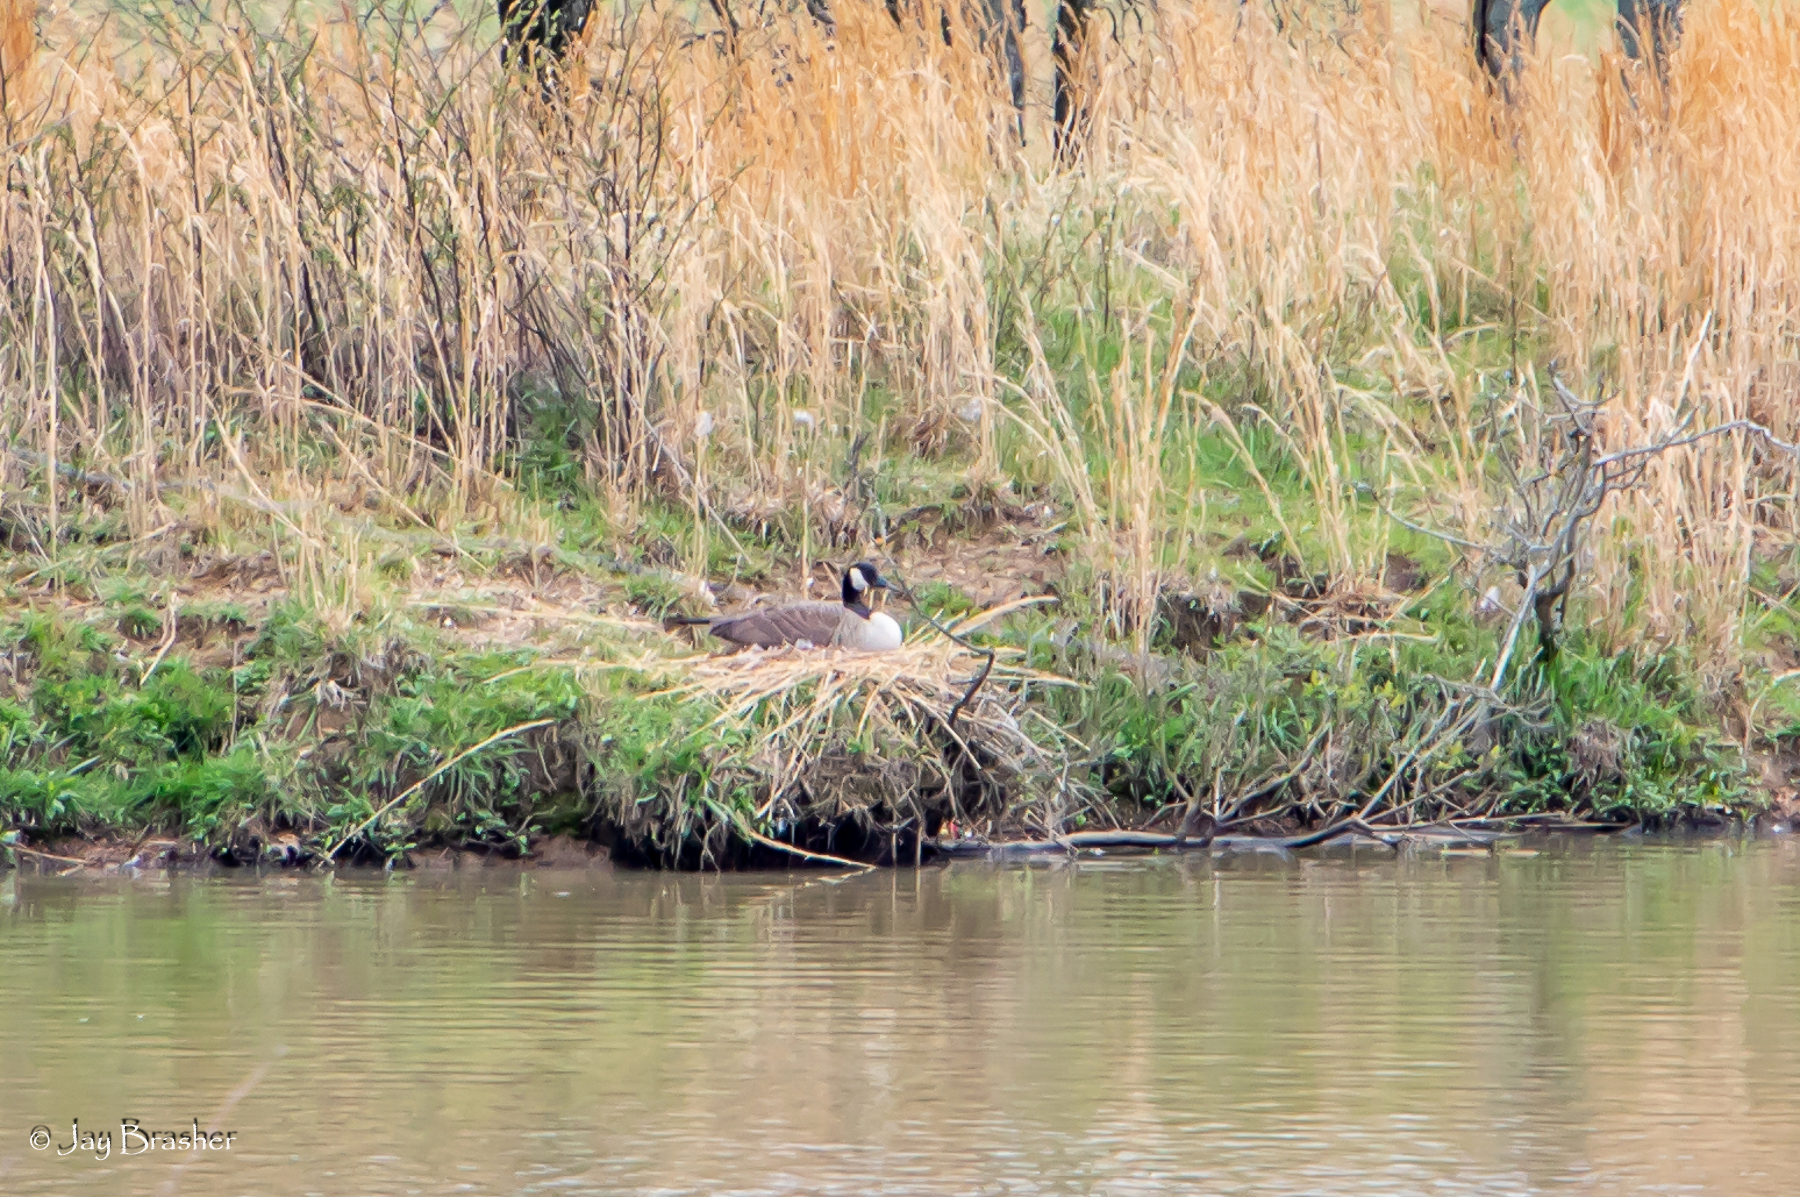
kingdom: Animalia
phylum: Chordata
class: Aves
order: Anseriformes
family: Anatidae
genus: Branta
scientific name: Branta canadensis
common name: Canada goose
